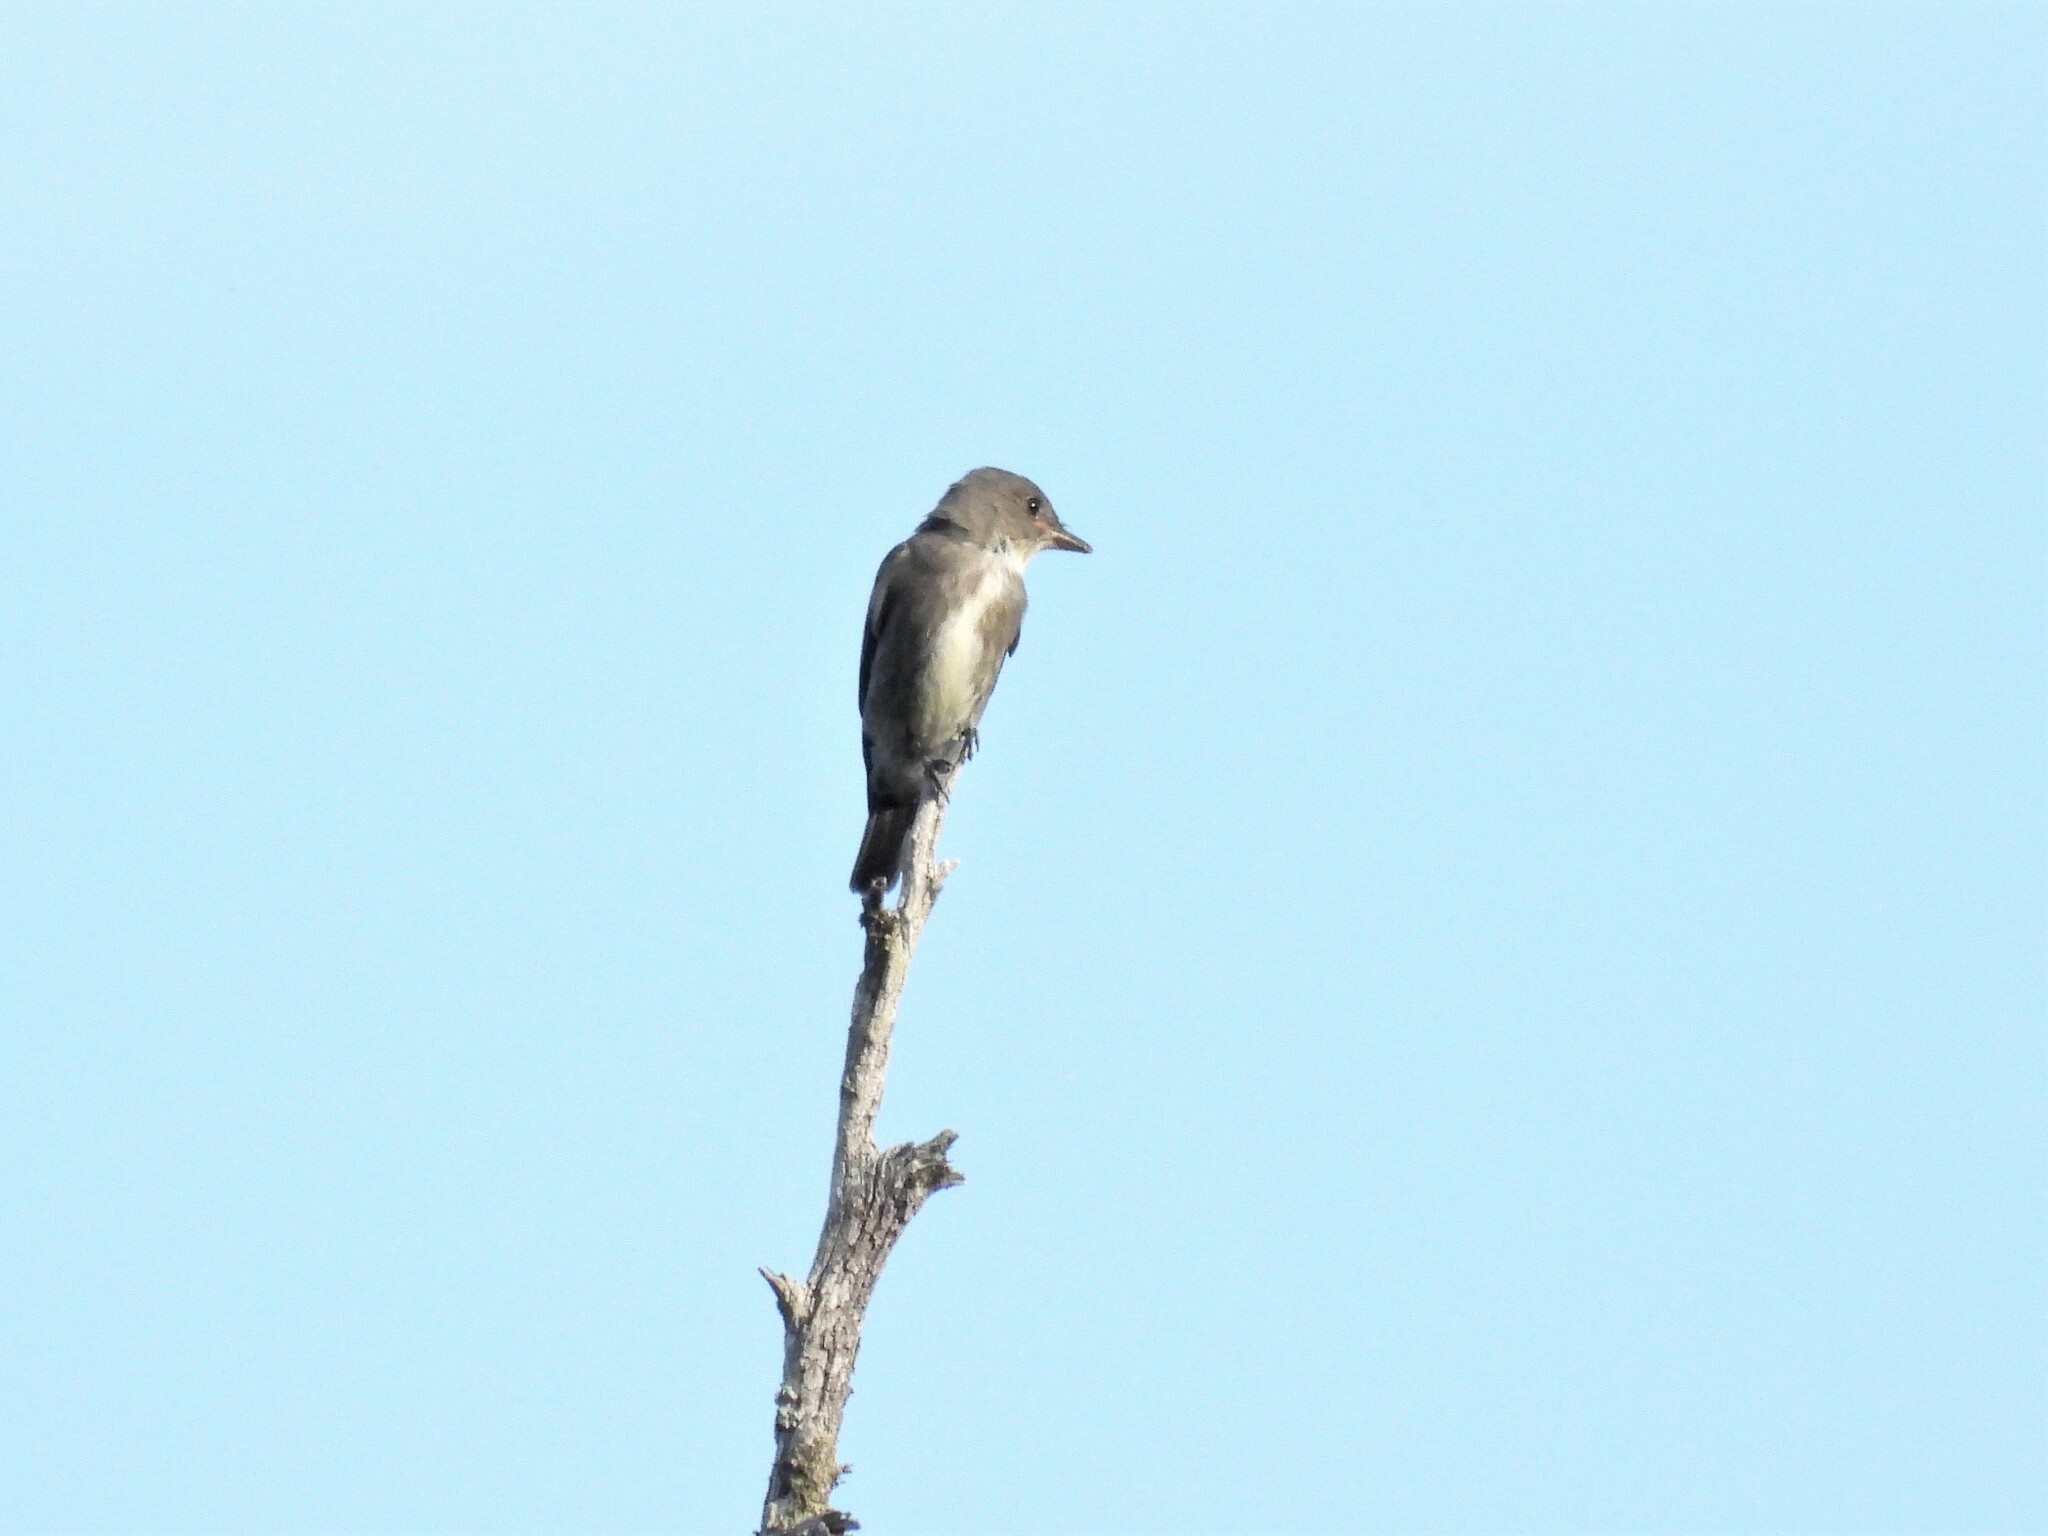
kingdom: Animalia
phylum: Chordata
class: Aves
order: Passeriformes
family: Tyrannidae
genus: Contopus
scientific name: Contopus cooperi
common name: Olive-sided flycatcher
